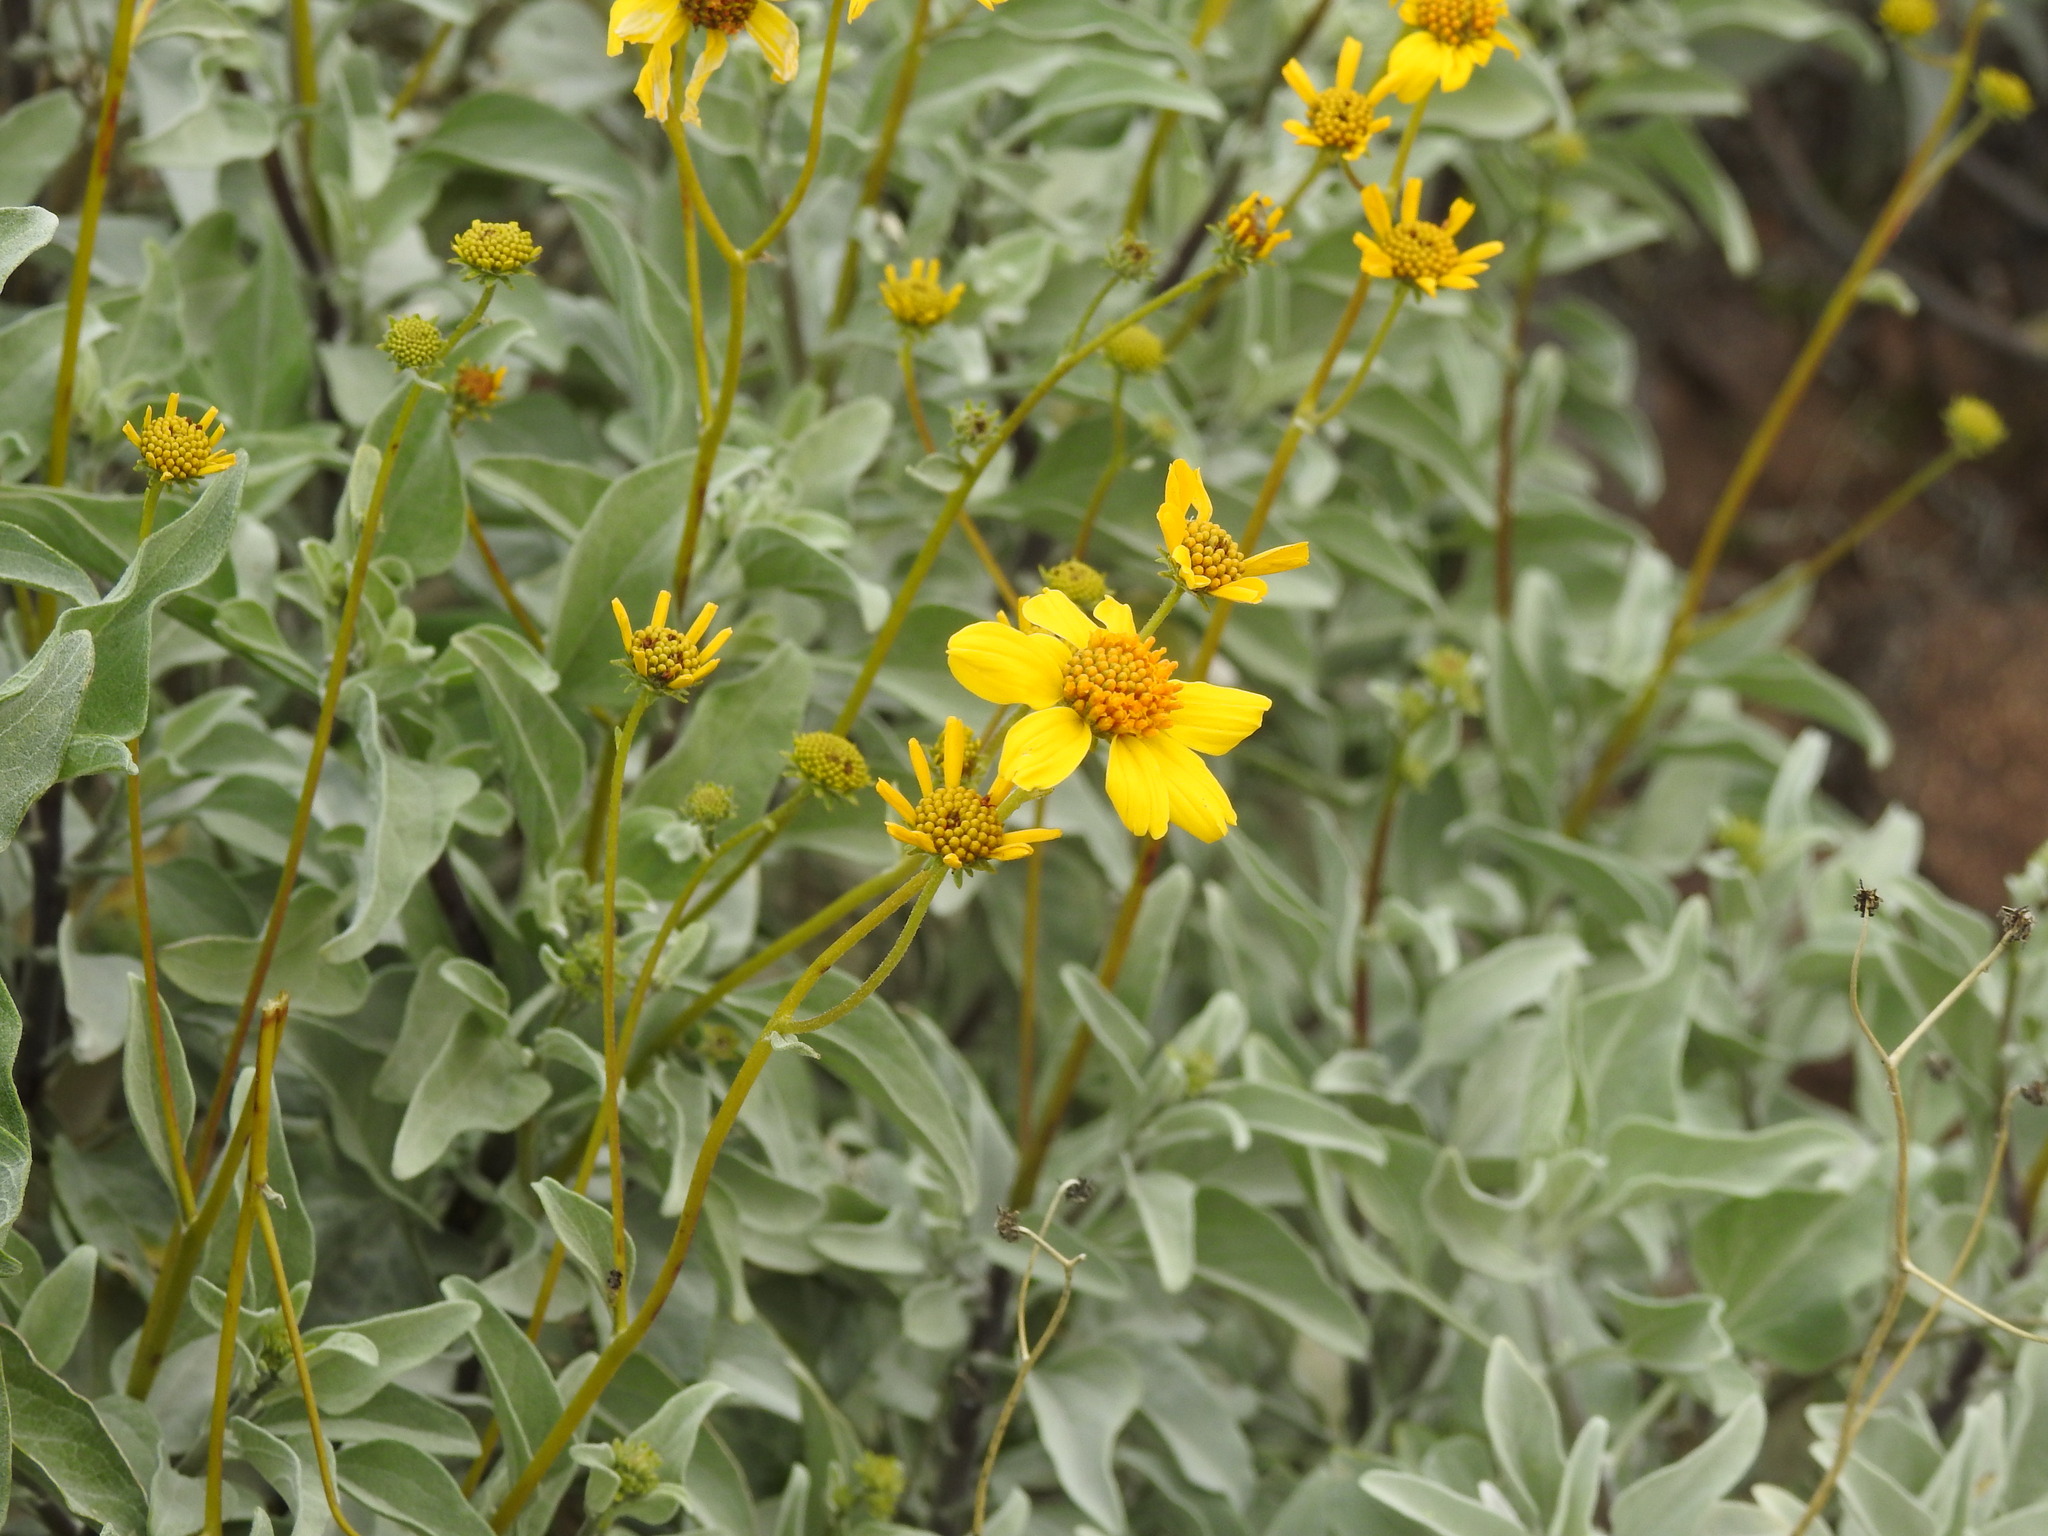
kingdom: Plantae
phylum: Tracheophyta
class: Magnoliopsida
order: Asterales
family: Asteraceae
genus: Encelia
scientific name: Encelia farinosa
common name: Brittlebush
